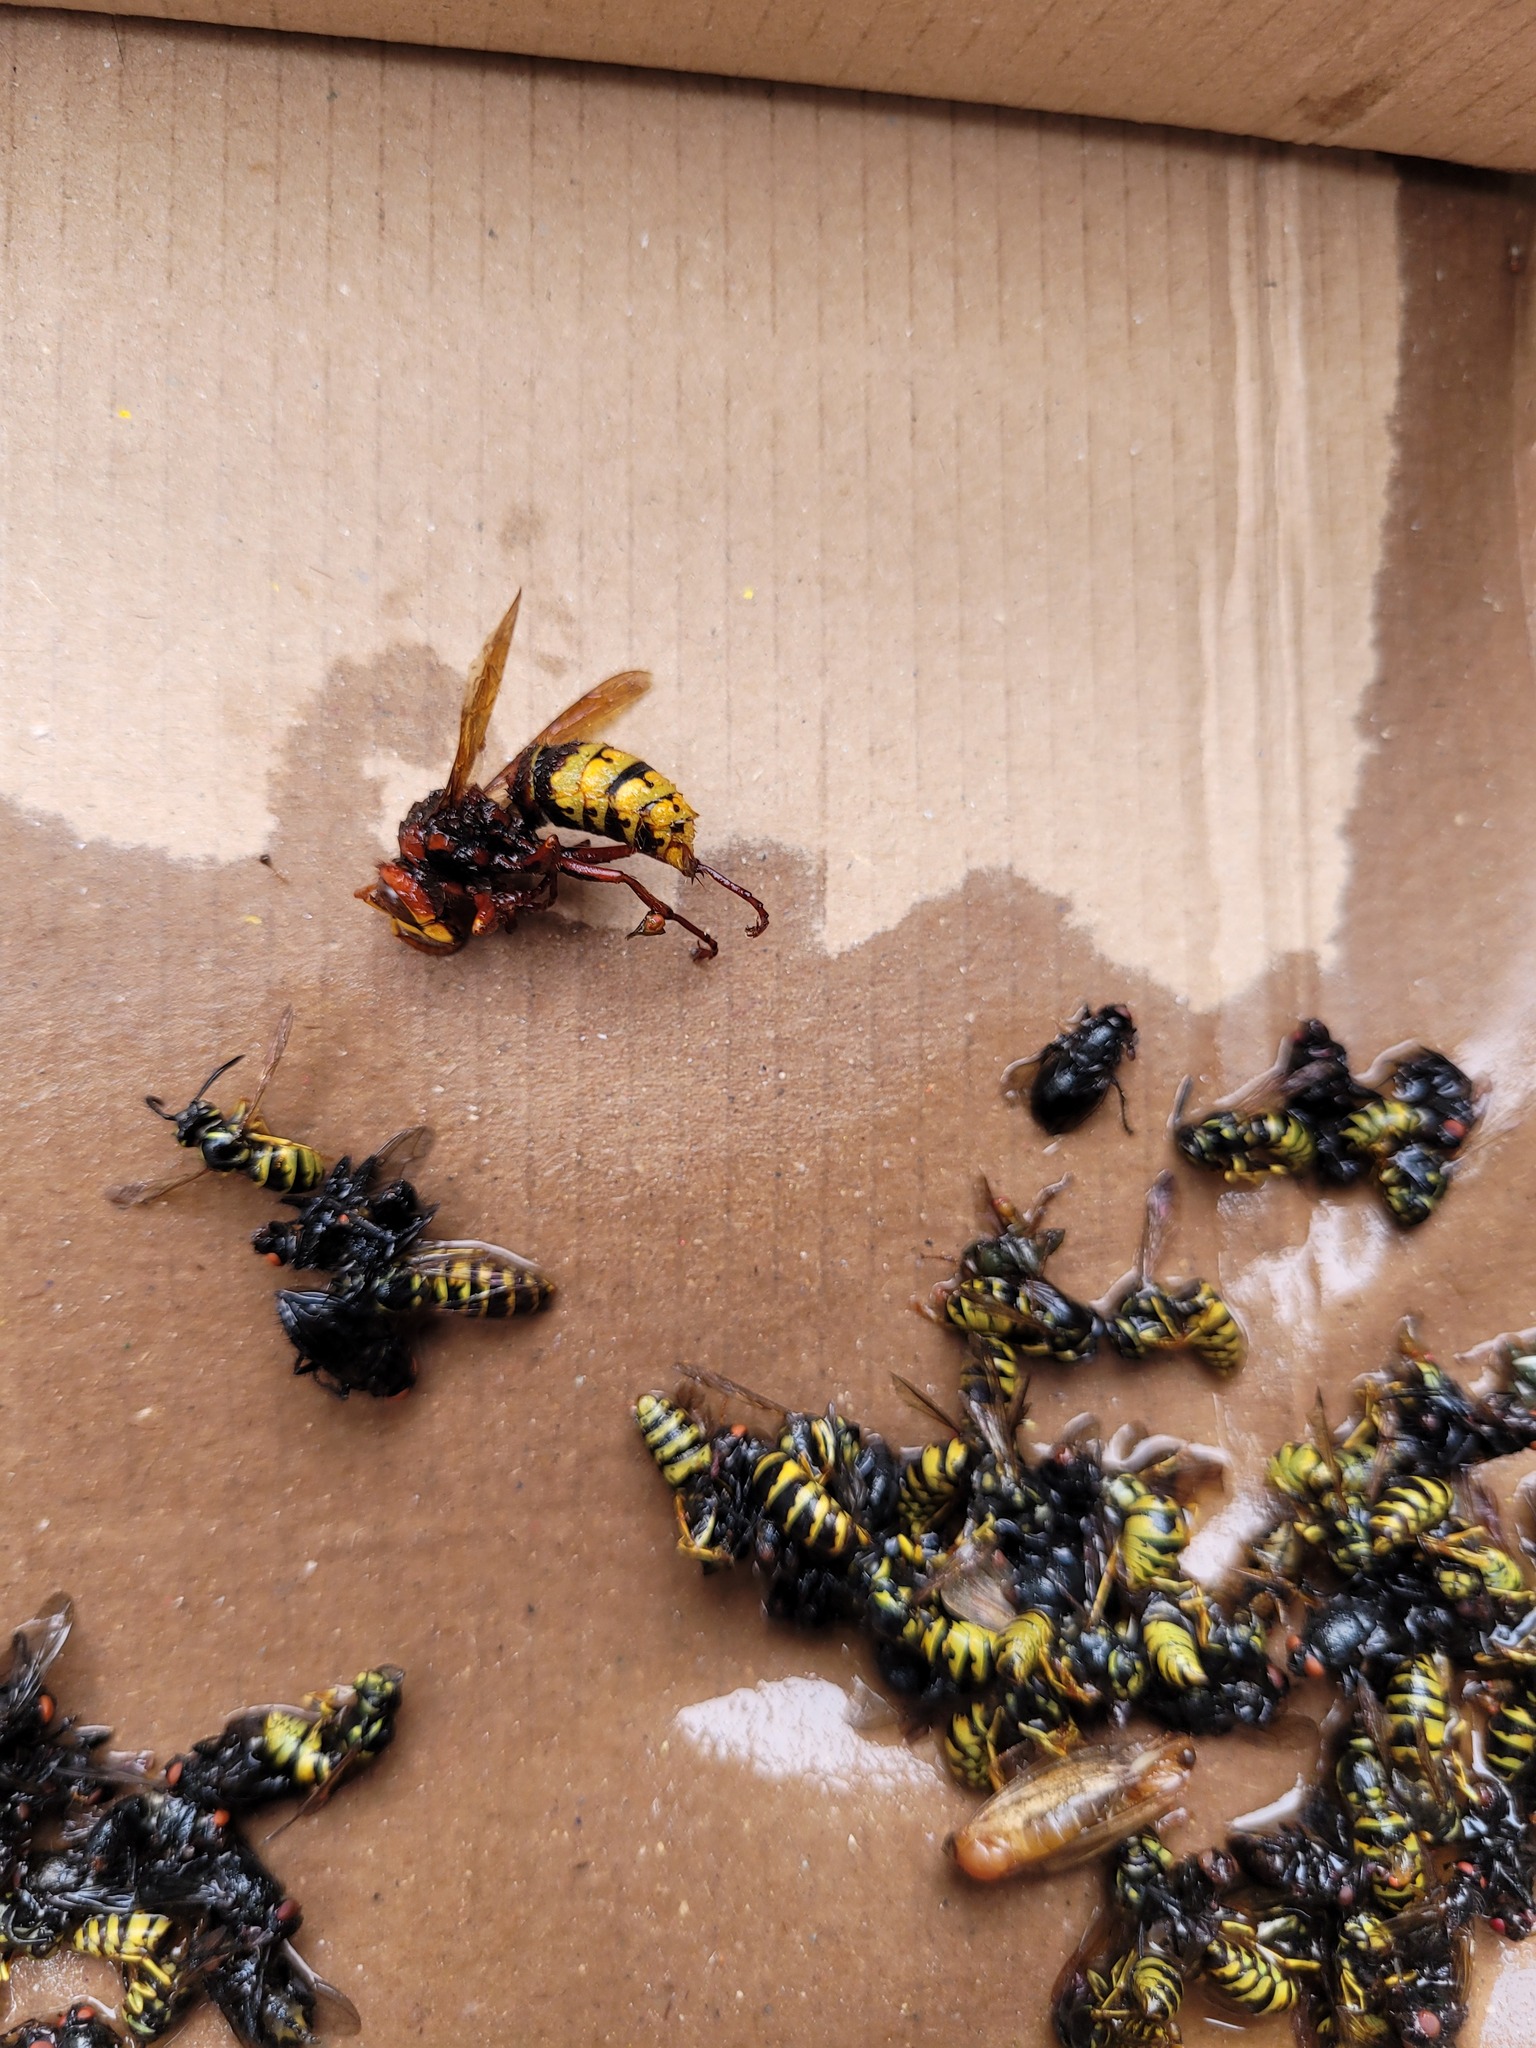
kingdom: Animalia
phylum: Arthropoda
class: Insecta
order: Hymenoptera
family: Vespidae
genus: Vespa
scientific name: Vespa crabro
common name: Hornet
